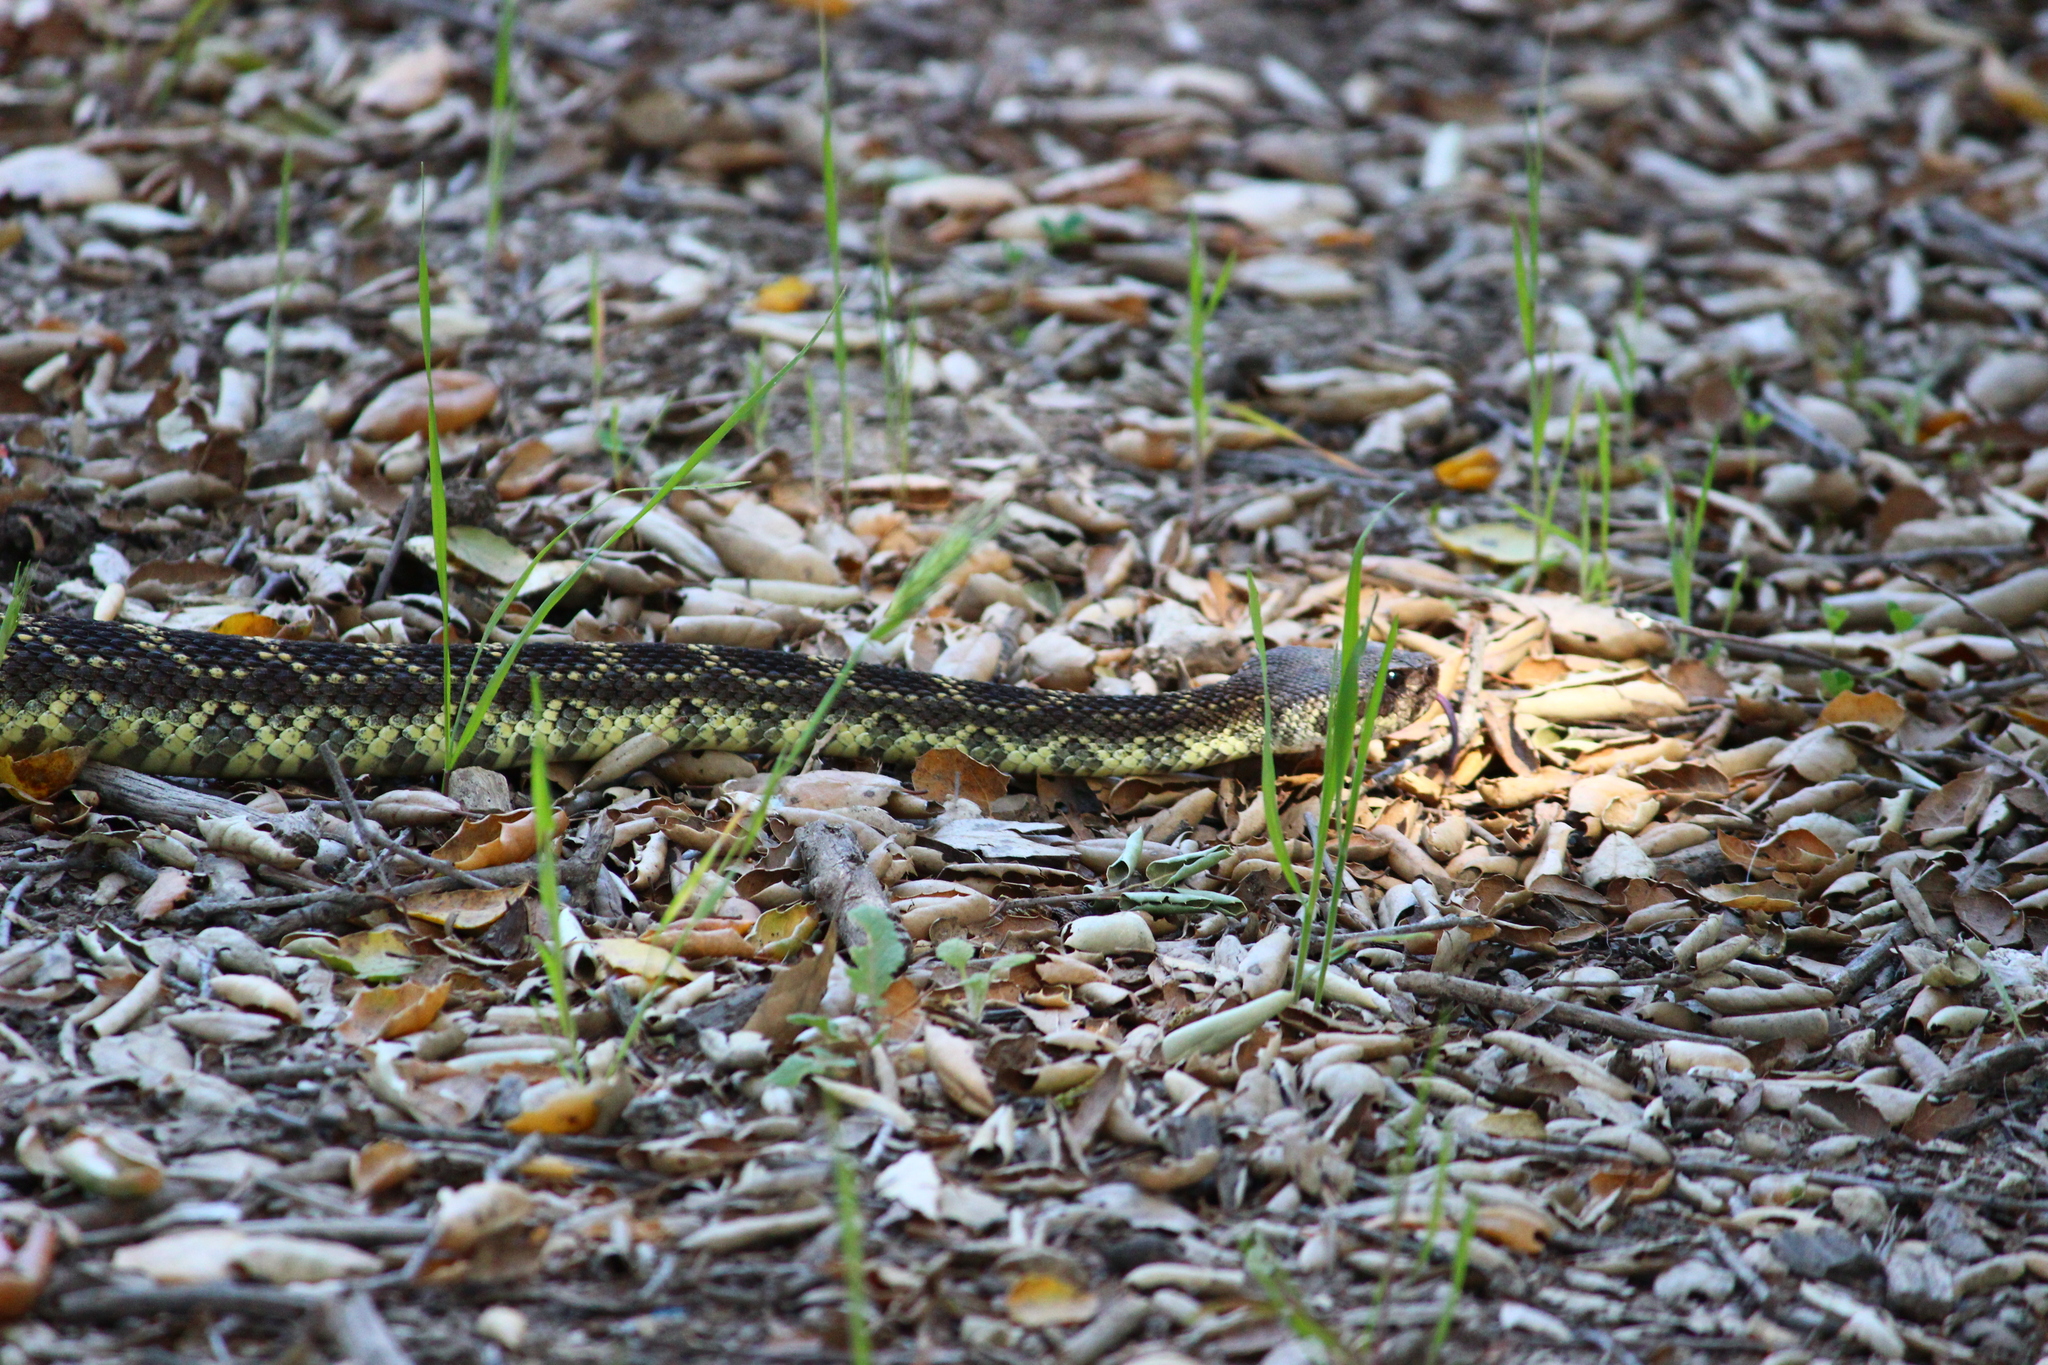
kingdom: Animalia
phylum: Chordata
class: Squamata
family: Viperidae
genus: Crotalus
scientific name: Crotalus oreganus
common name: Abyssus
